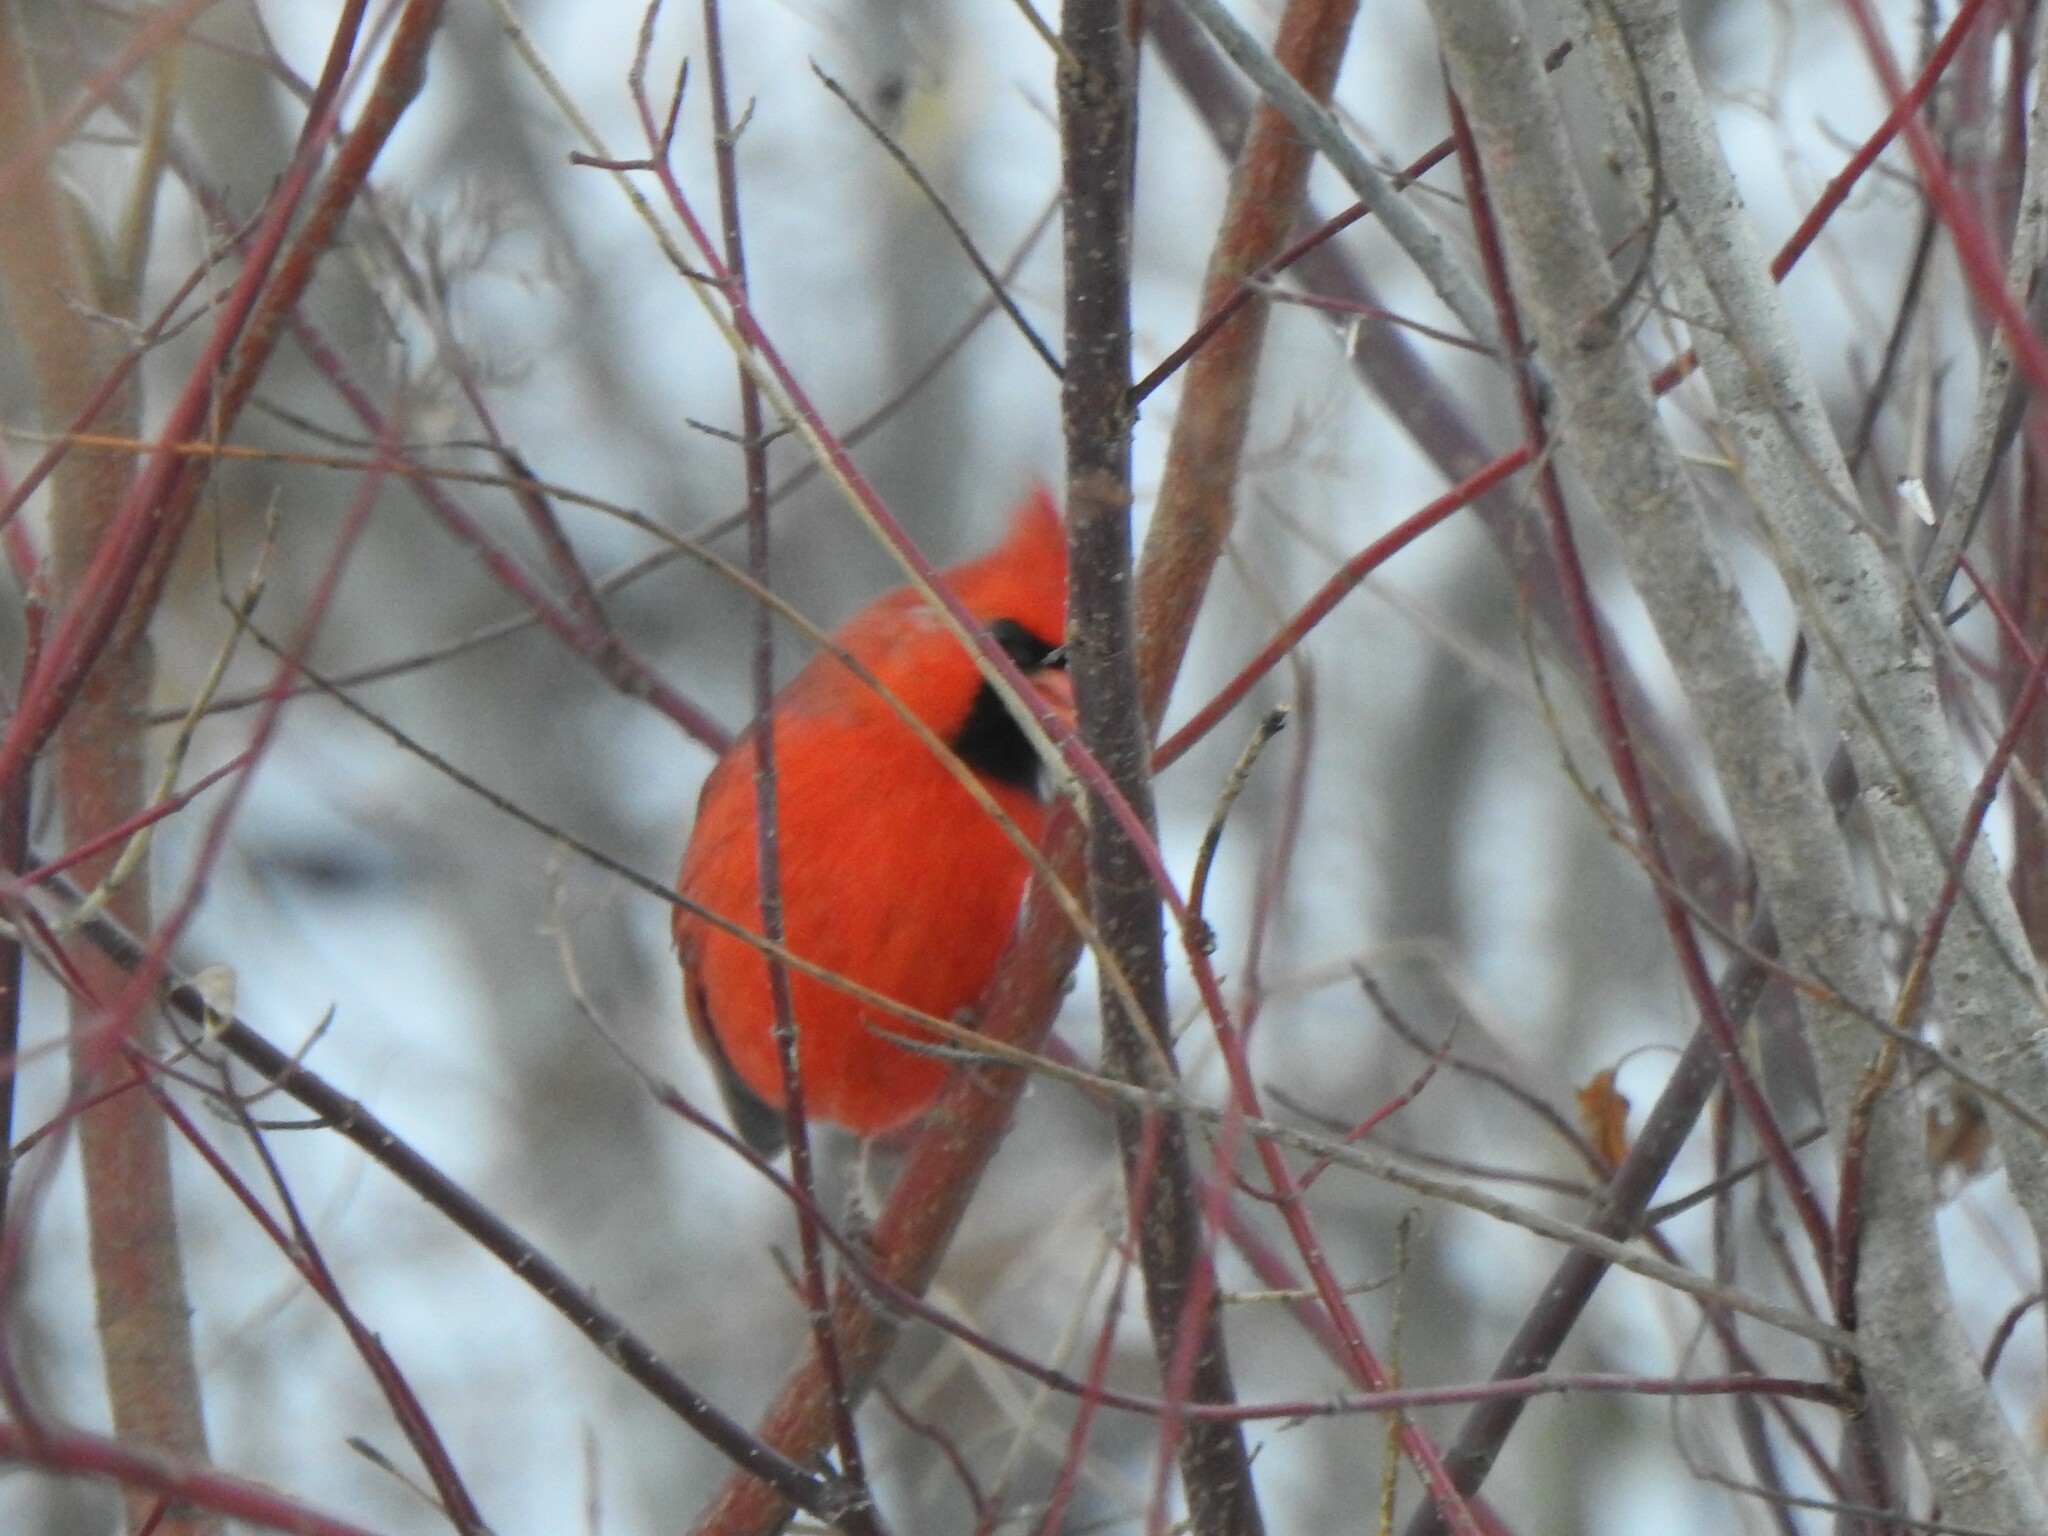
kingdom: Animalia
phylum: Chordata
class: Aves
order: Passeriformes
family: Cardinalidae
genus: Cardinalis
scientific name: Cardinalis cardinalis
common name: Northern cardinal
